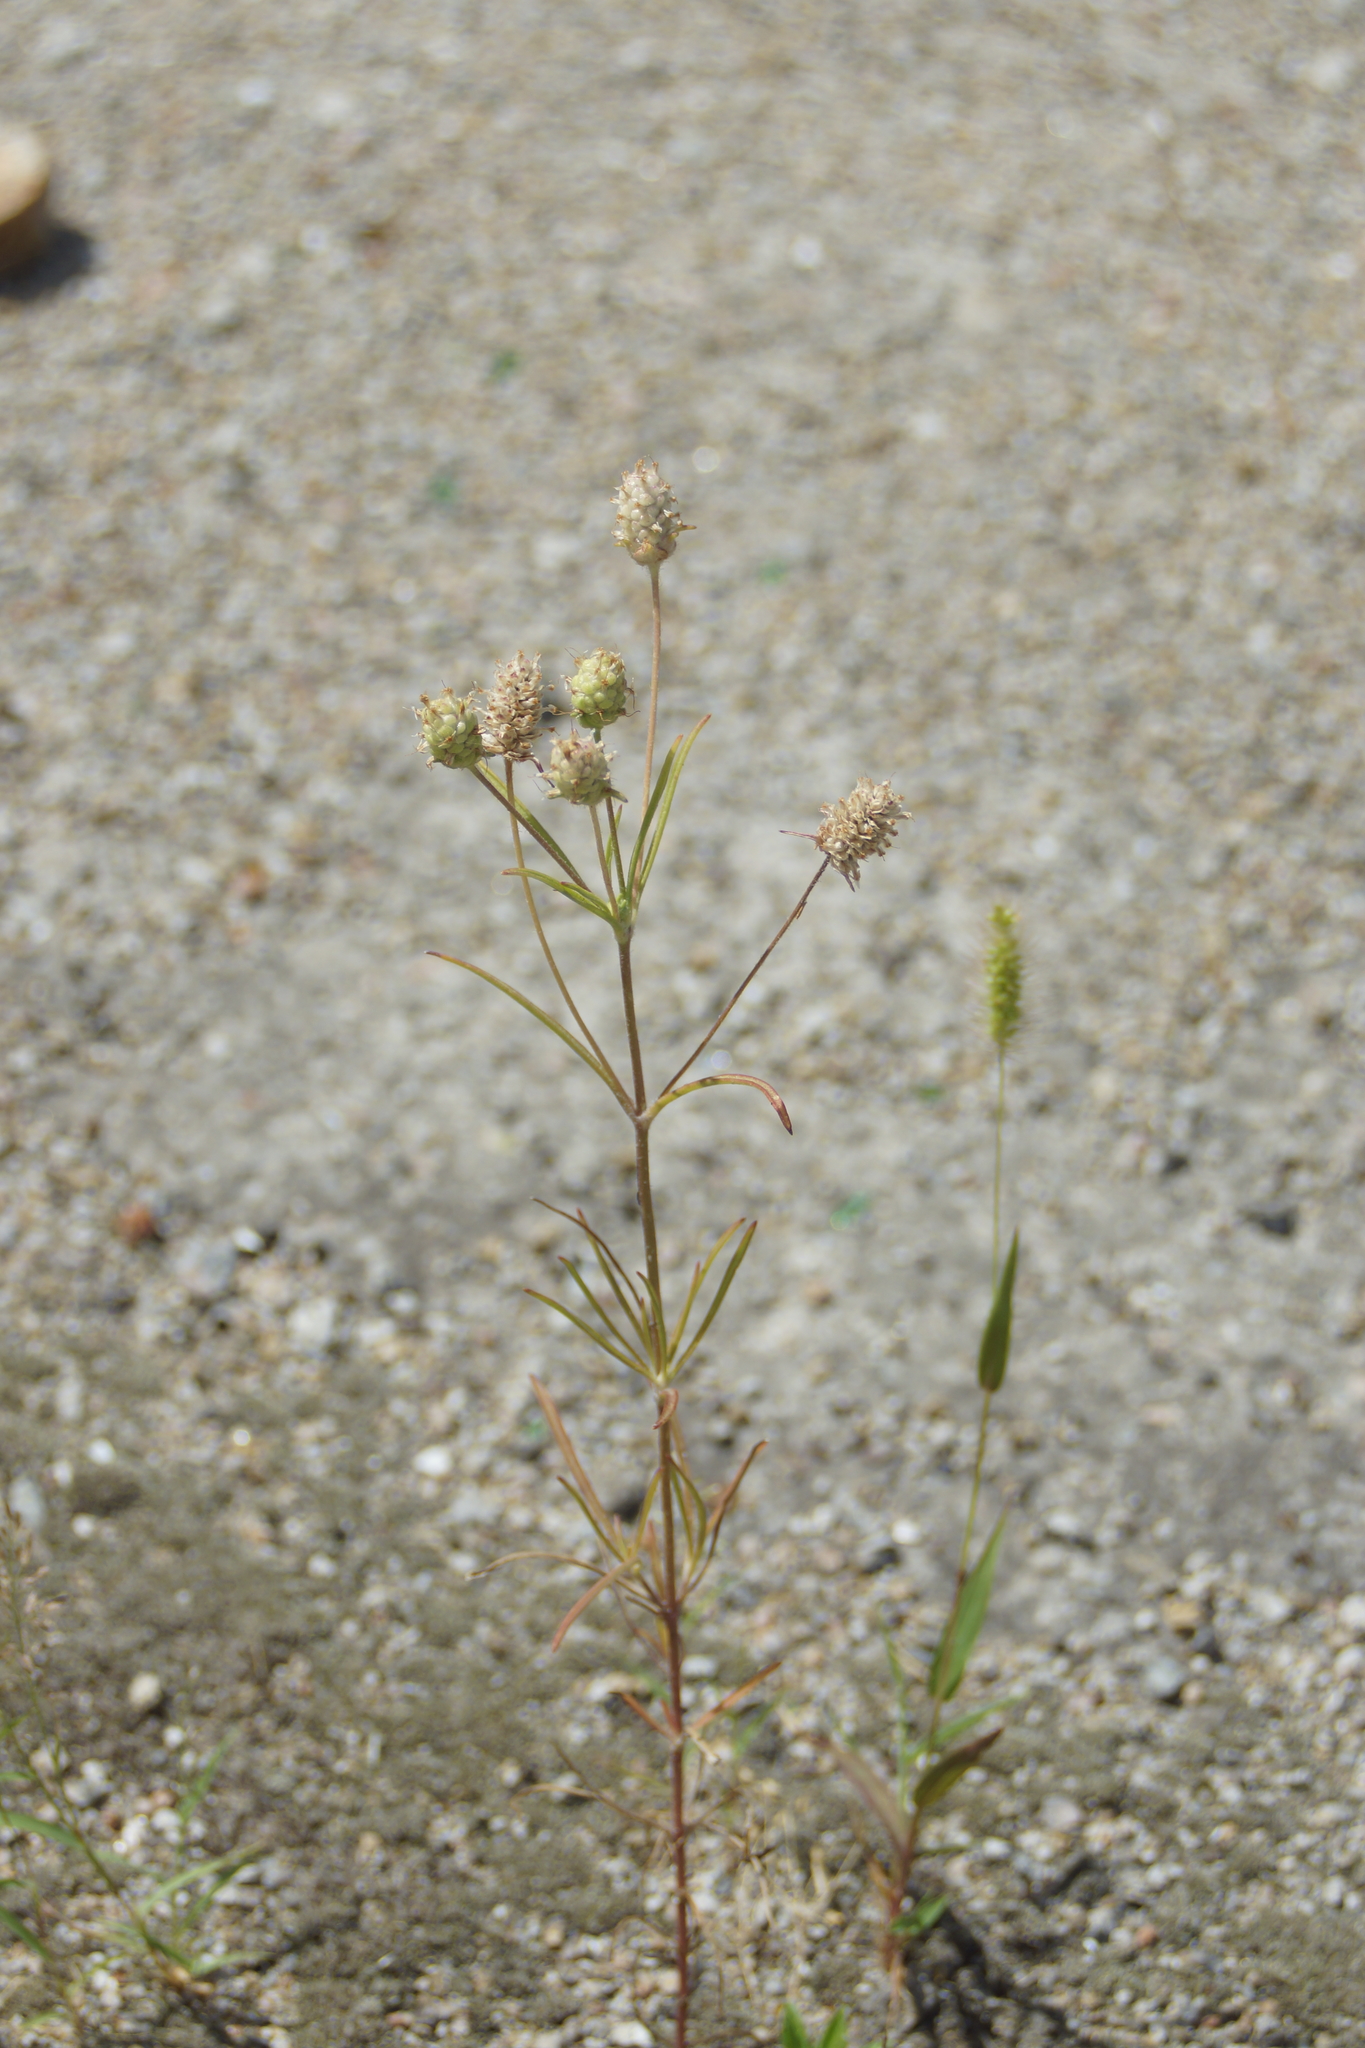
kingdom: Plantae
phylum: Tracheophyta
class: Magnoliopsida
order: Lamiales
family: Plantaginaceae
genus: Plantago
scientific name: Plantago arenaria
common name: Branched plantain
